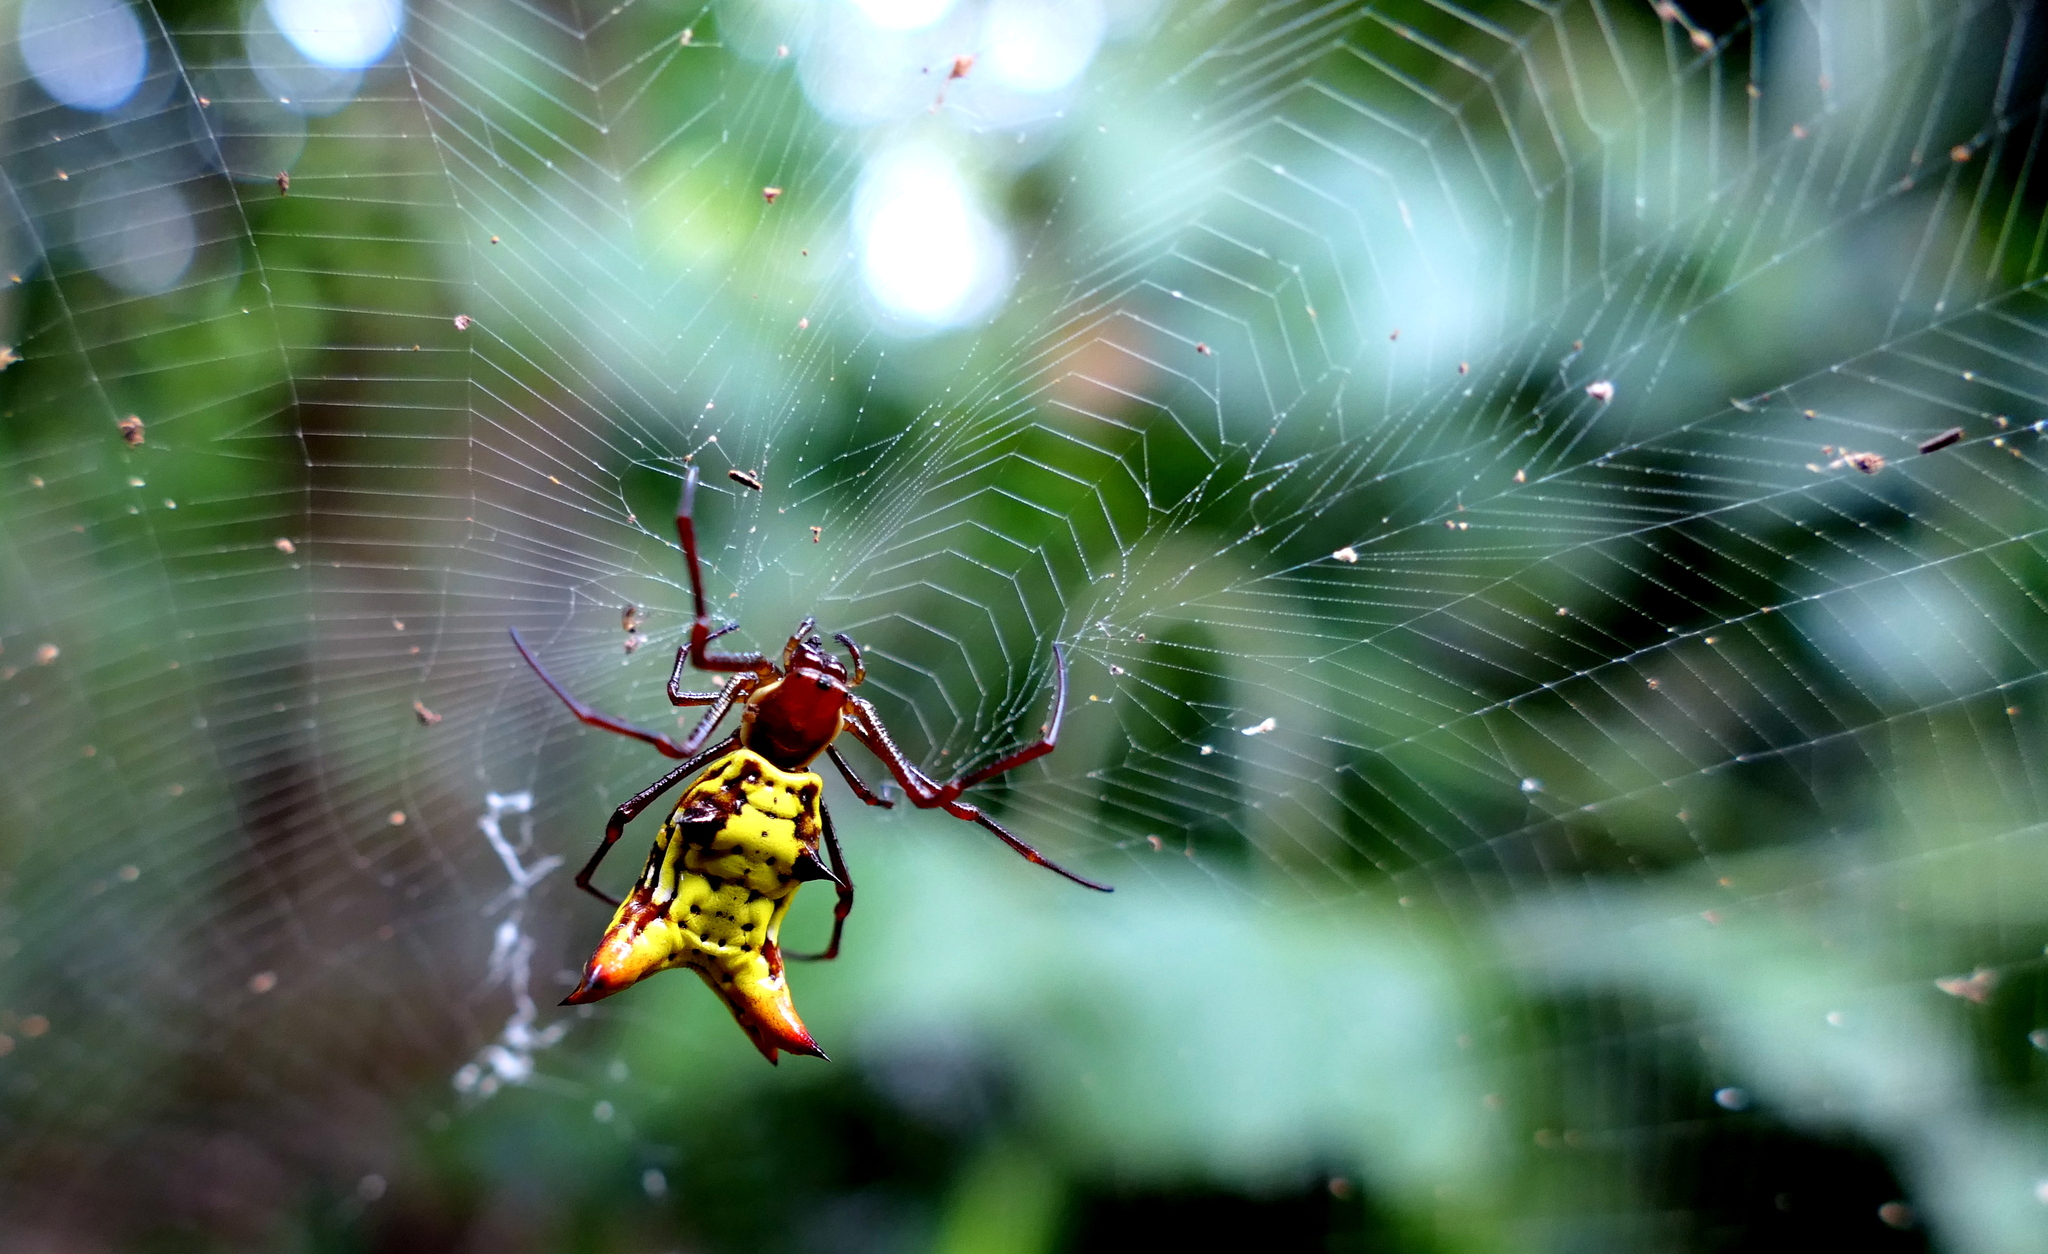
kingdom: Animalia
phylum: Arthropoda
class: Arachnida
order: Araneae
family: Araneidae
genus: Micrathena
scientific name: Micrathena fissispina
